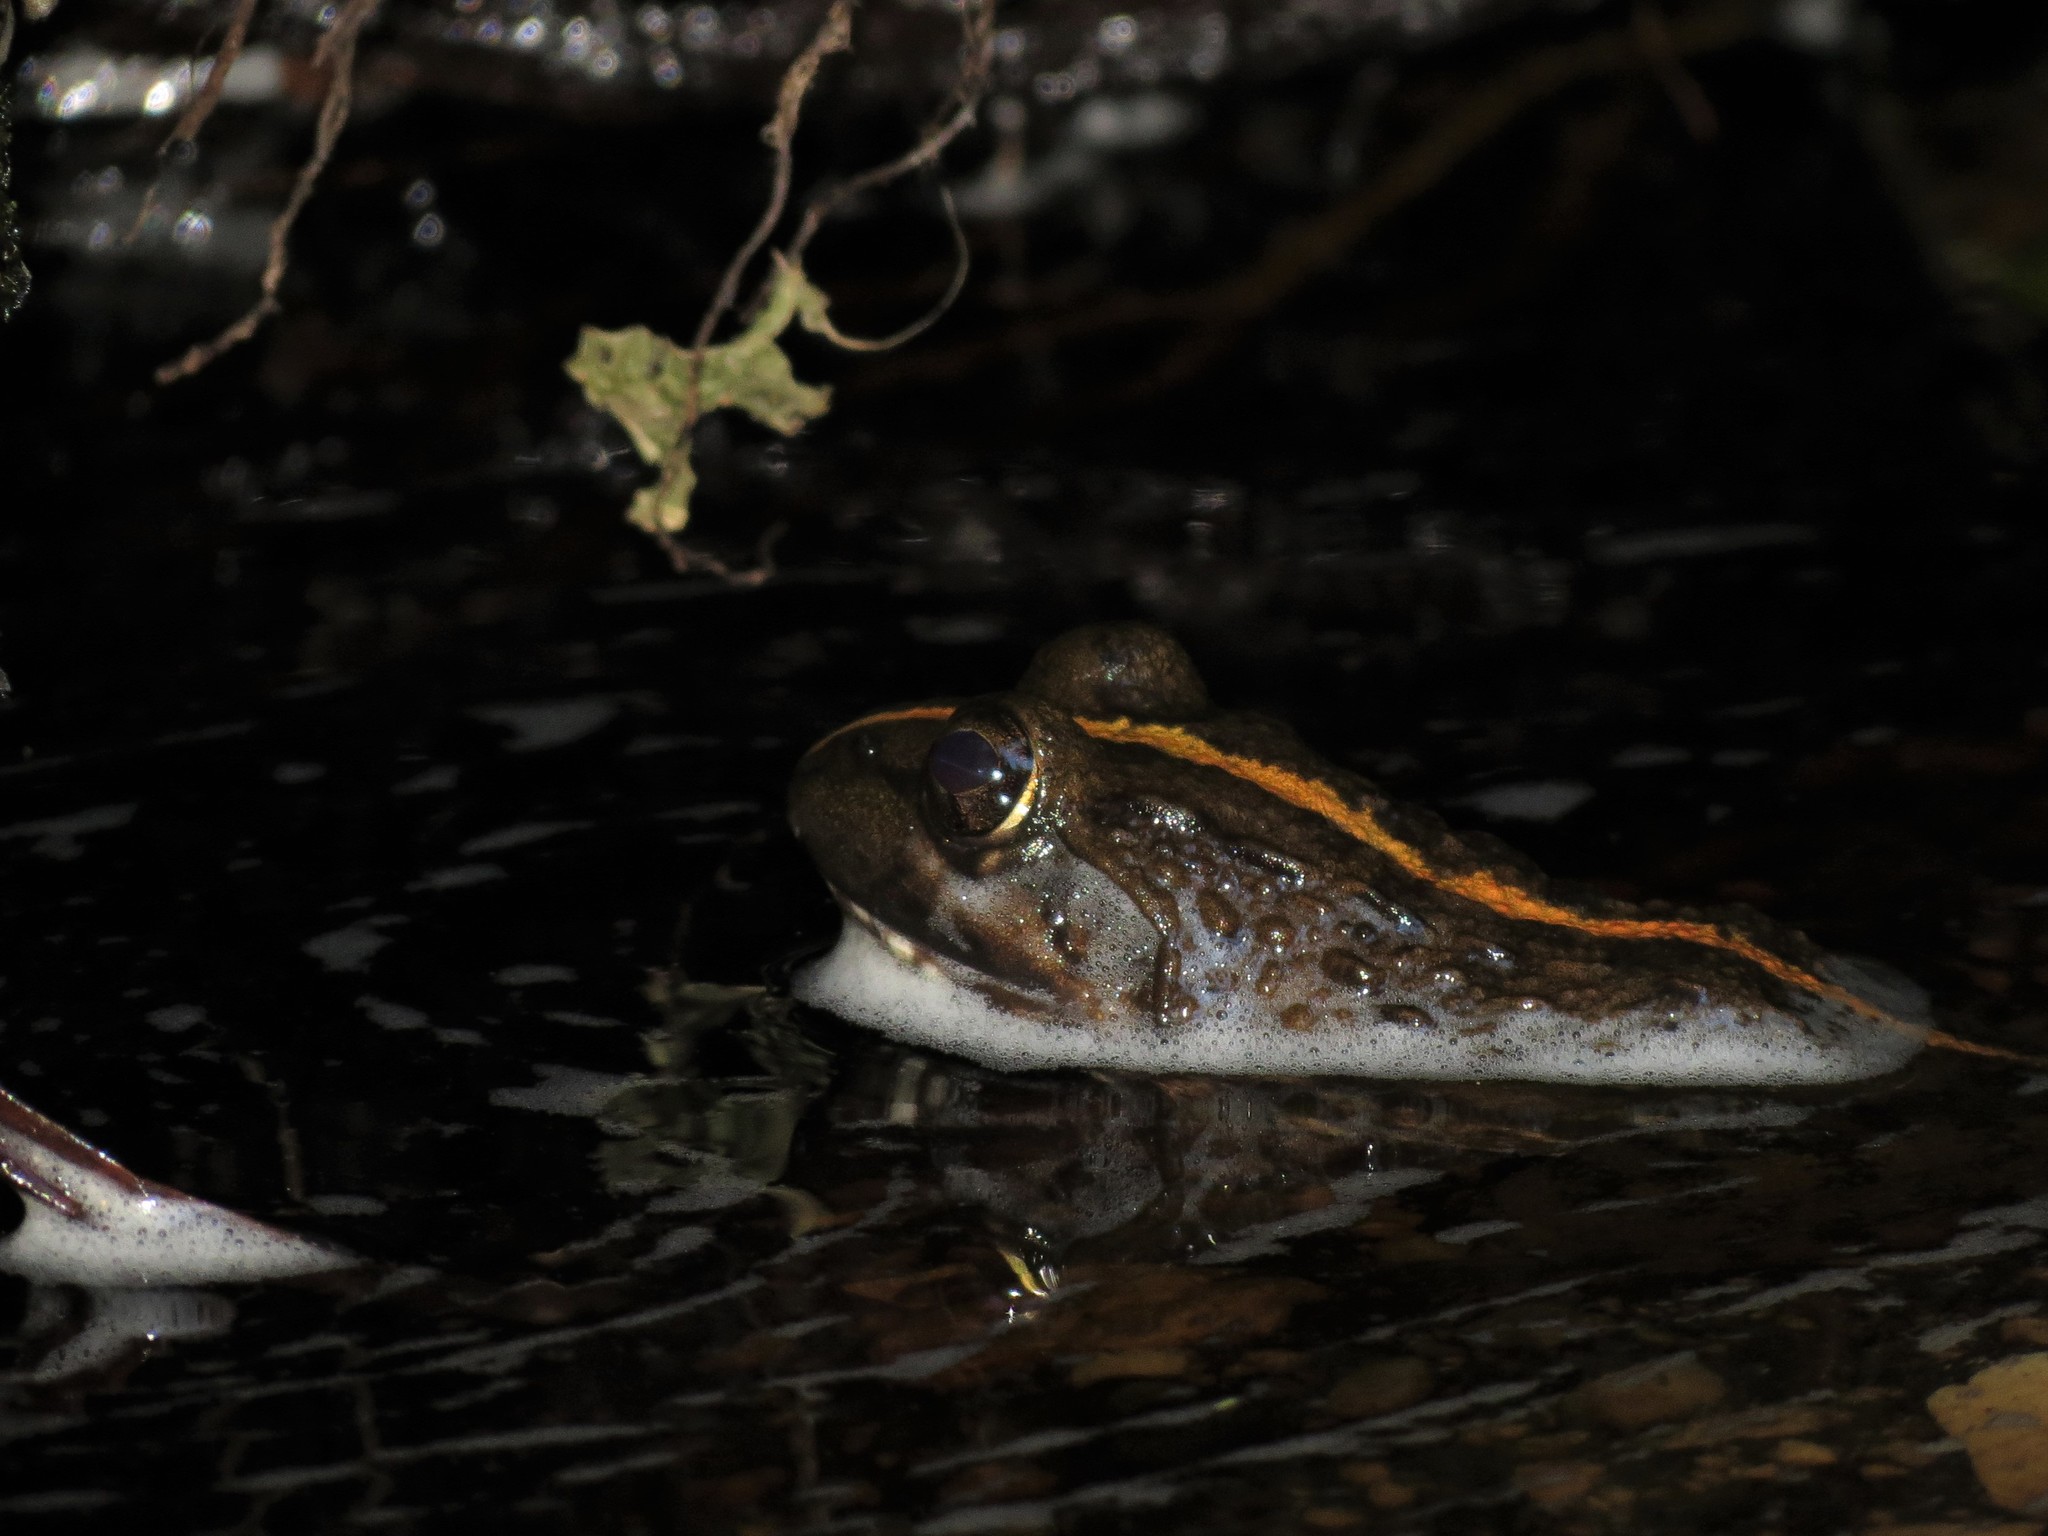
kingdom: Animalia
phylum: Chordata
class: Amphibia
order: Anura
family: Pyxicephalidae
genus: Amietia
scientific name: Amietia fuscigula
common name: Cape rana
